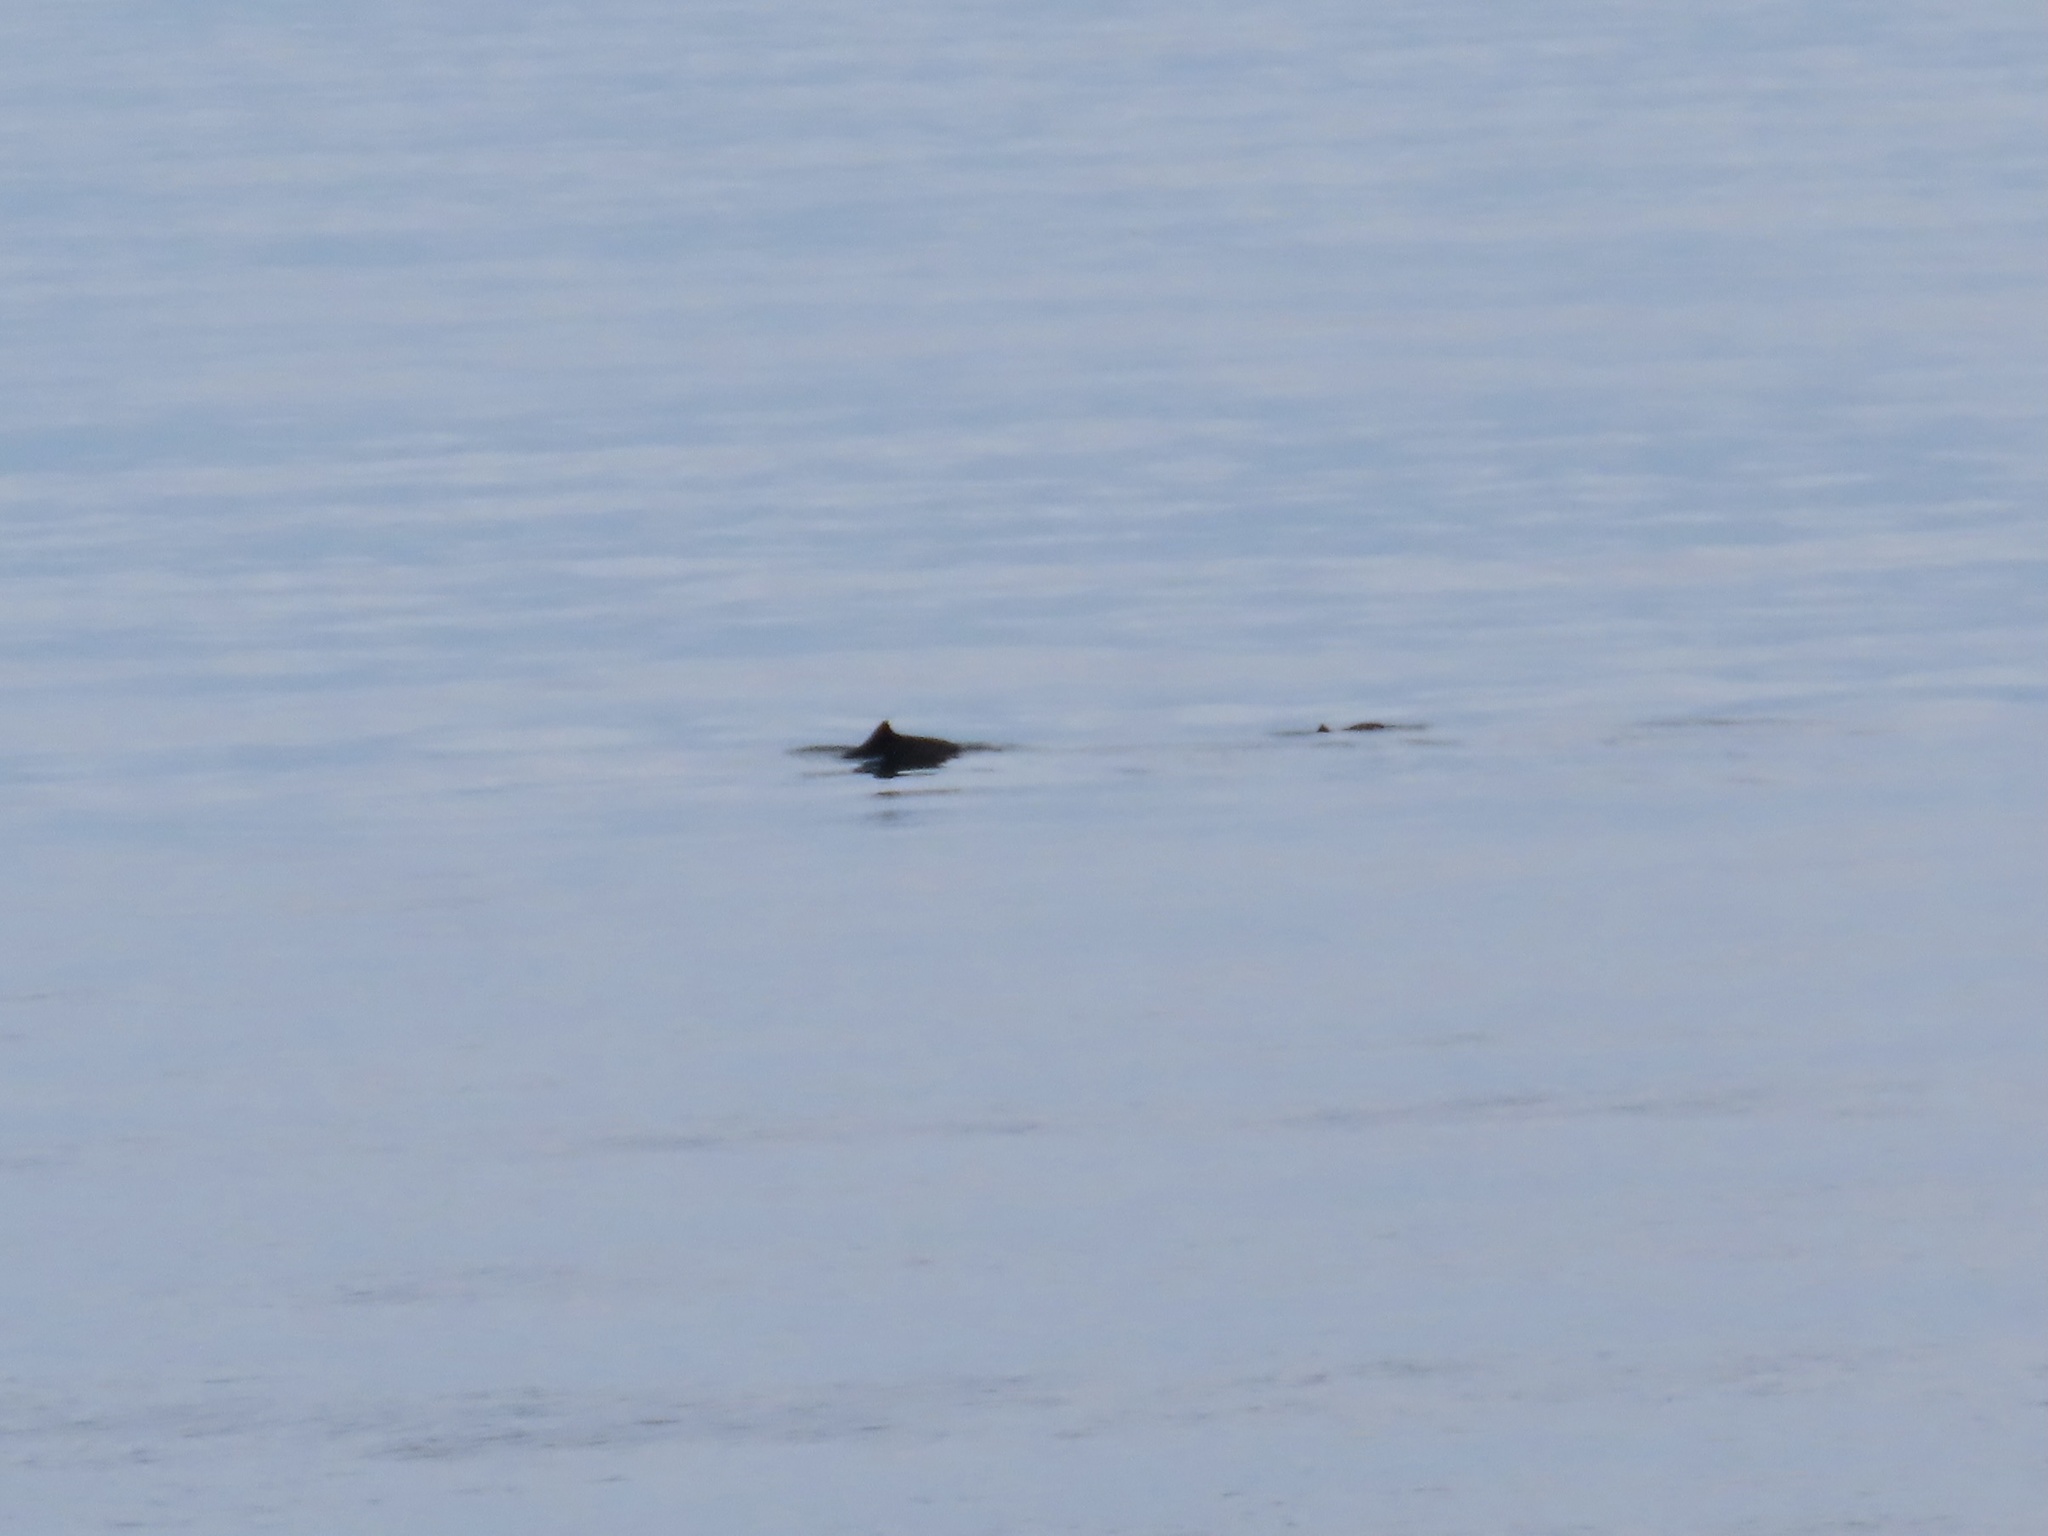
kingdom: Animalia
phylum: Chordata
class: Mammalia
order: Cetacea
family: Phocoenidae
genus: Phocoena
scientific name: Phocoena phocoena
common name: Harbor porpoise
